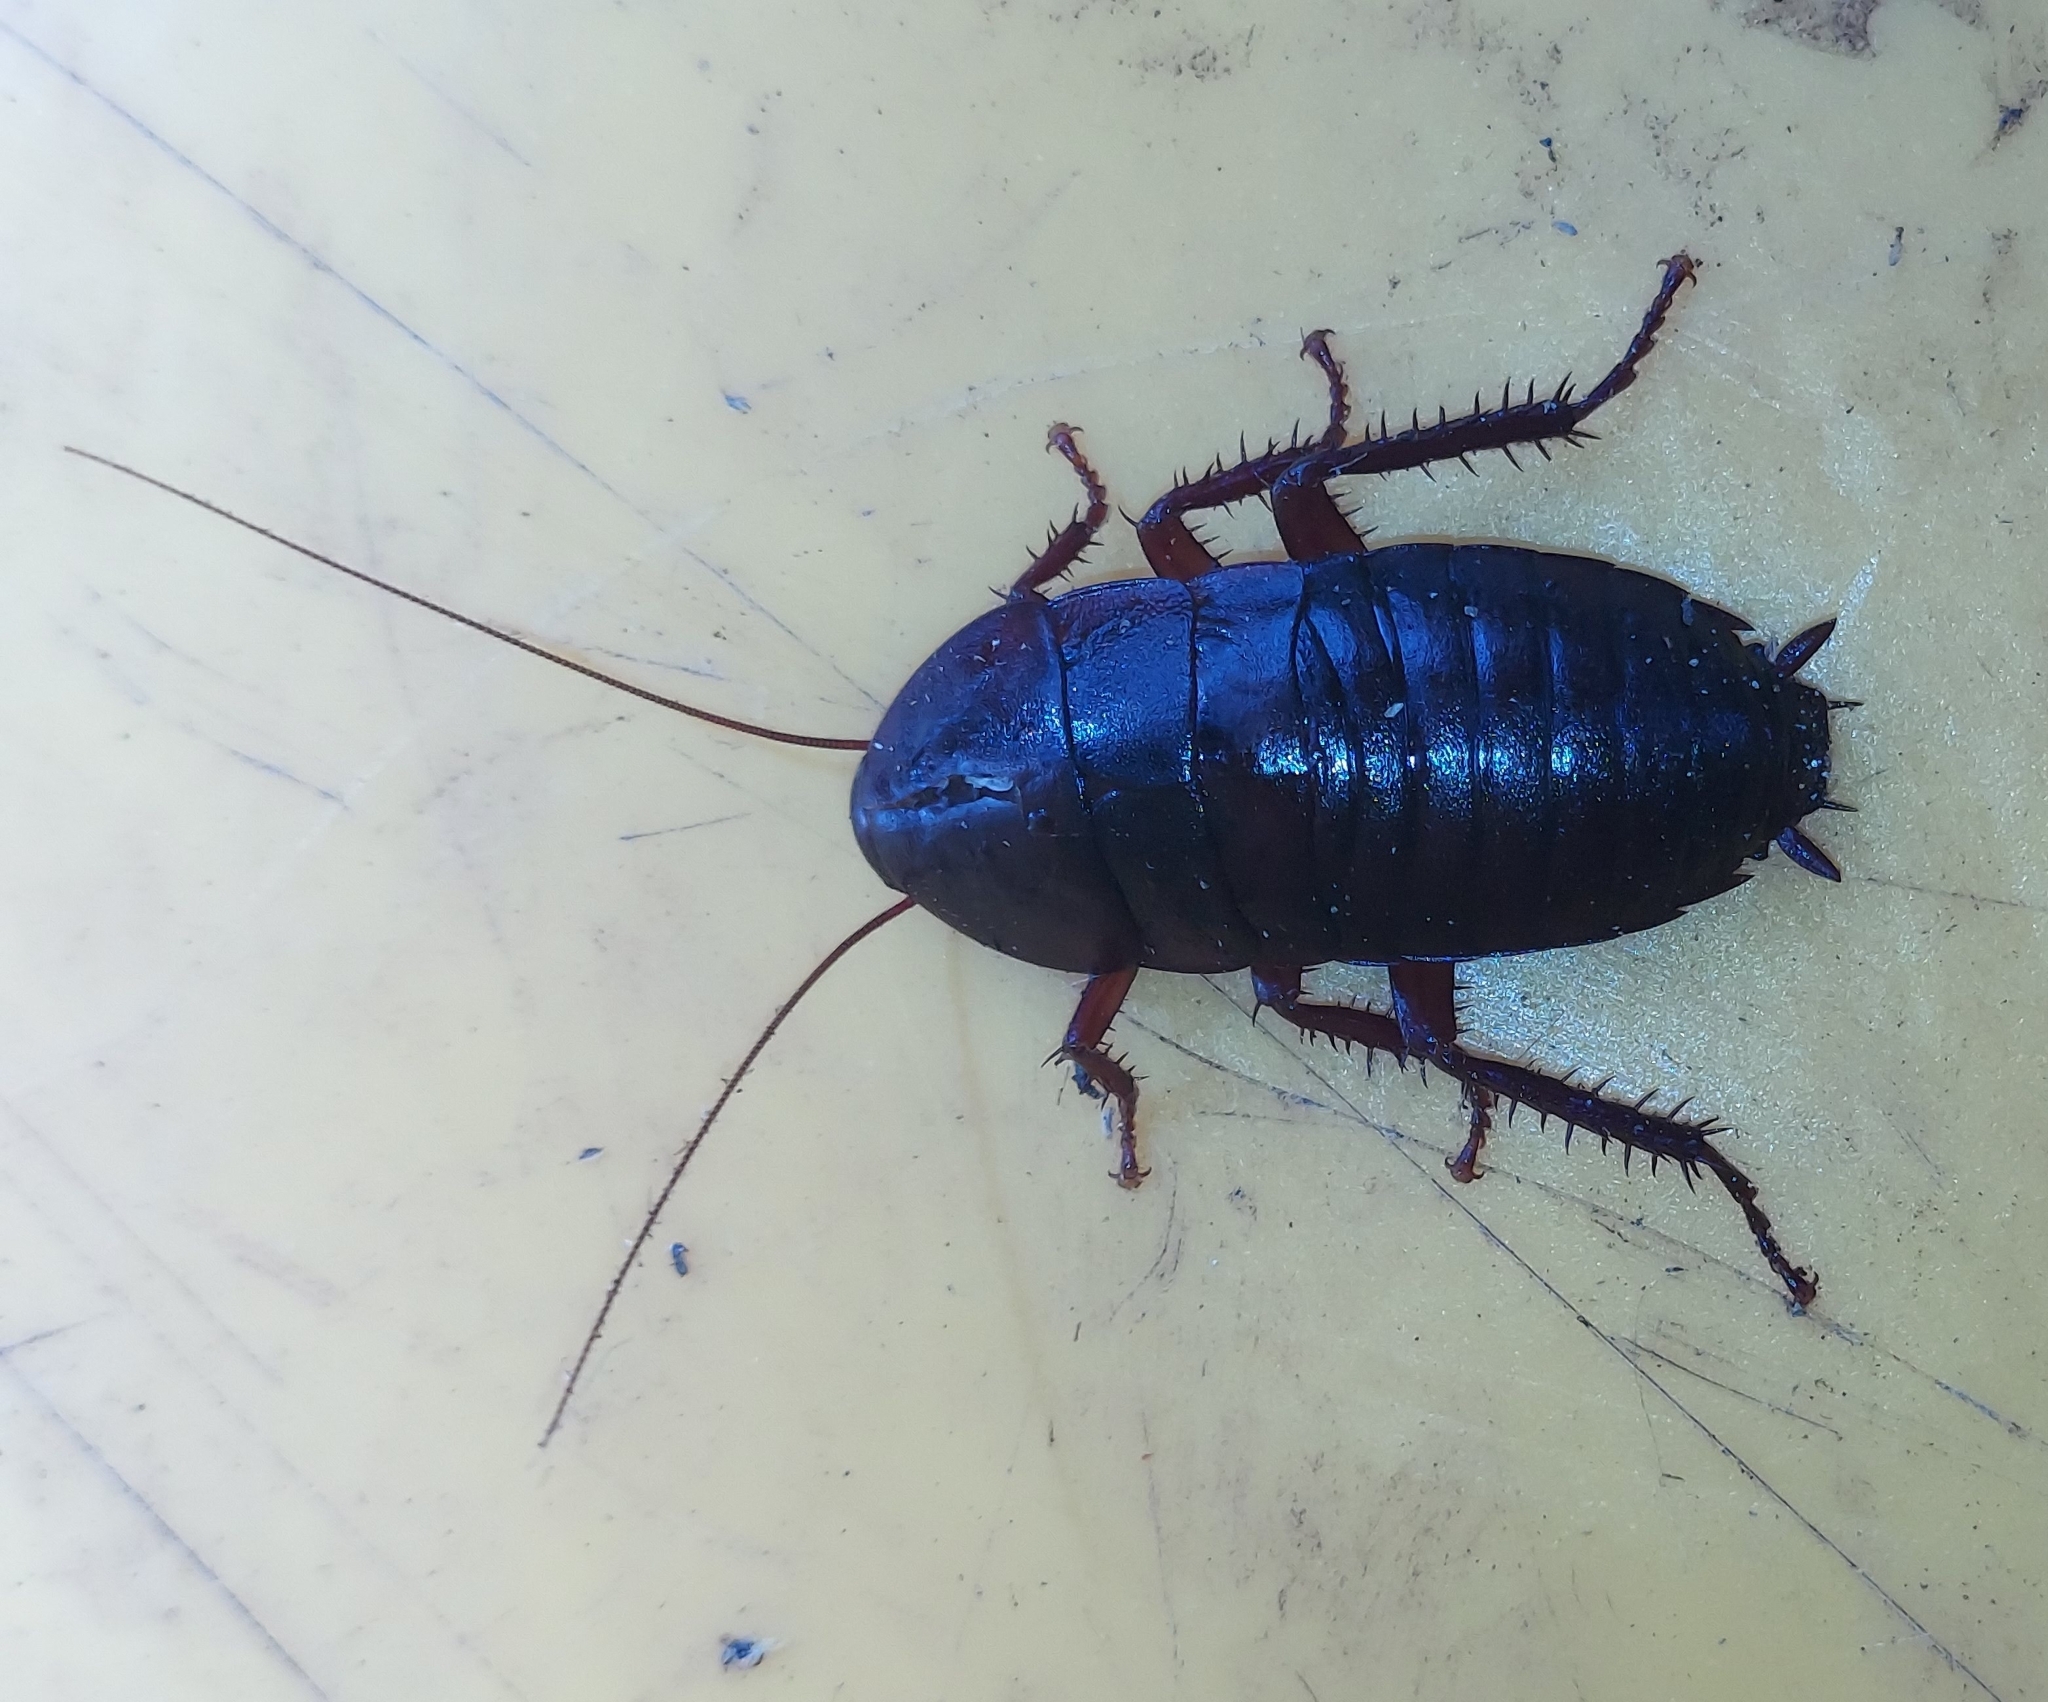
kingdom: Animalia
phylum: Arthropoda
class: Insecta
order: Blattodea
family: Blattidae
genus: Eurycotis
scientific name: Eurycotis floridana
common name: Florida cockroach
